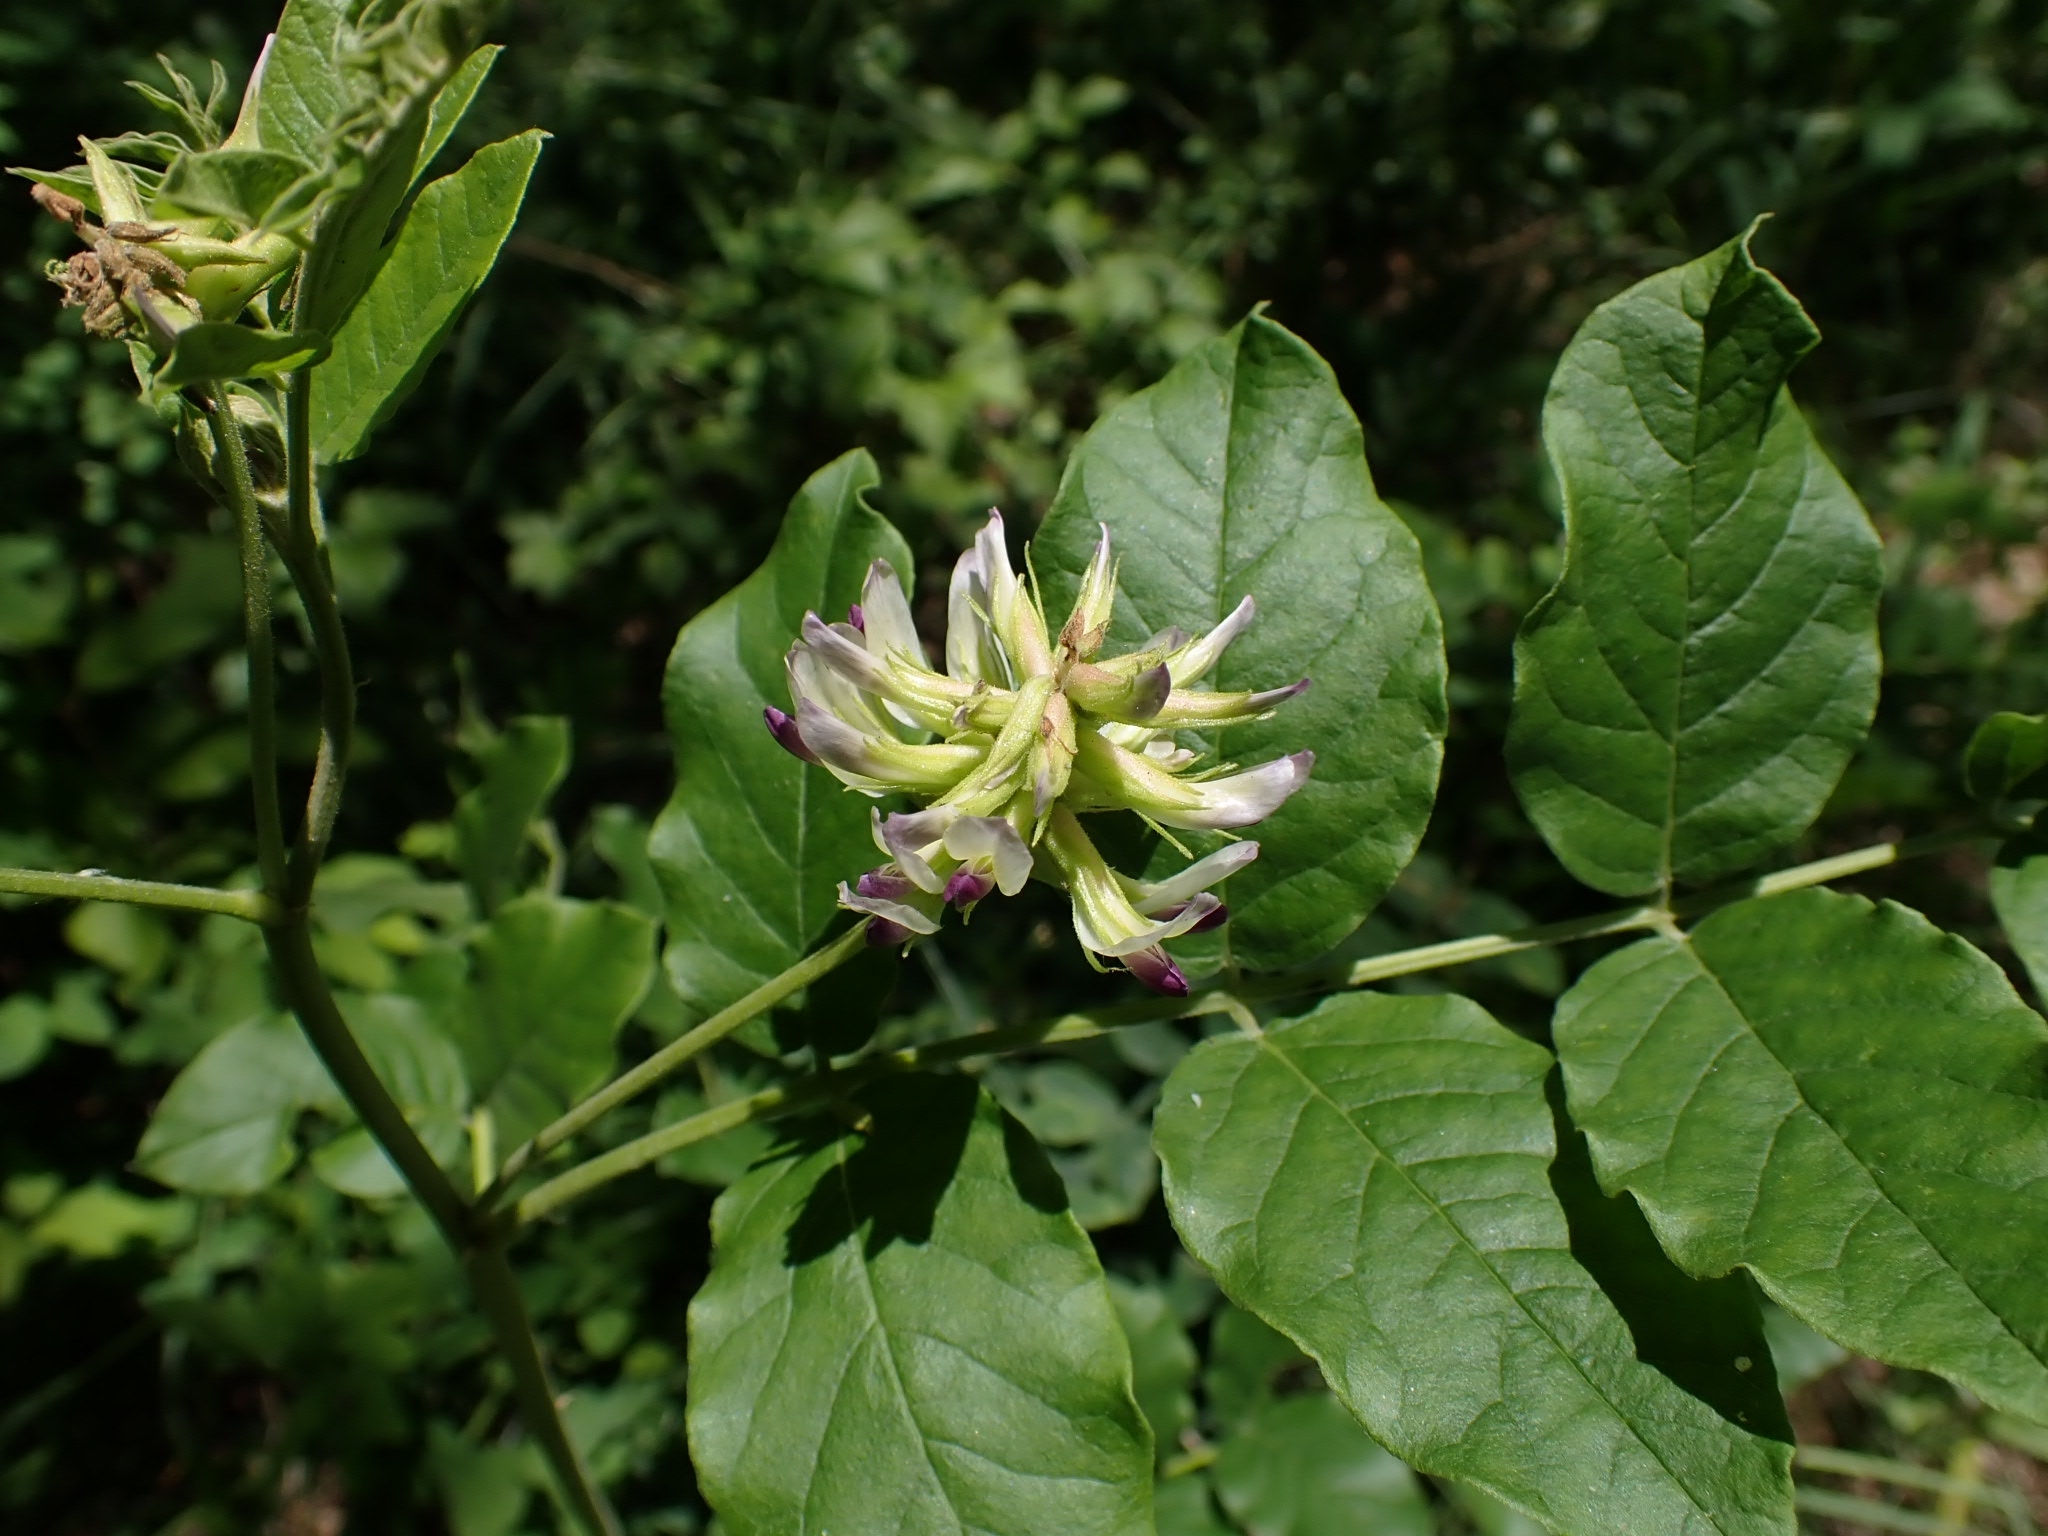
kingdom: Plantae
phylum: Tracheophyta
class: Magnoliopsida
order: Fabales
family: Fabaceae
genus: Glycyrrhiza
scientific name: Glycyrrhiza uralensis
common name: Chinese licorice
